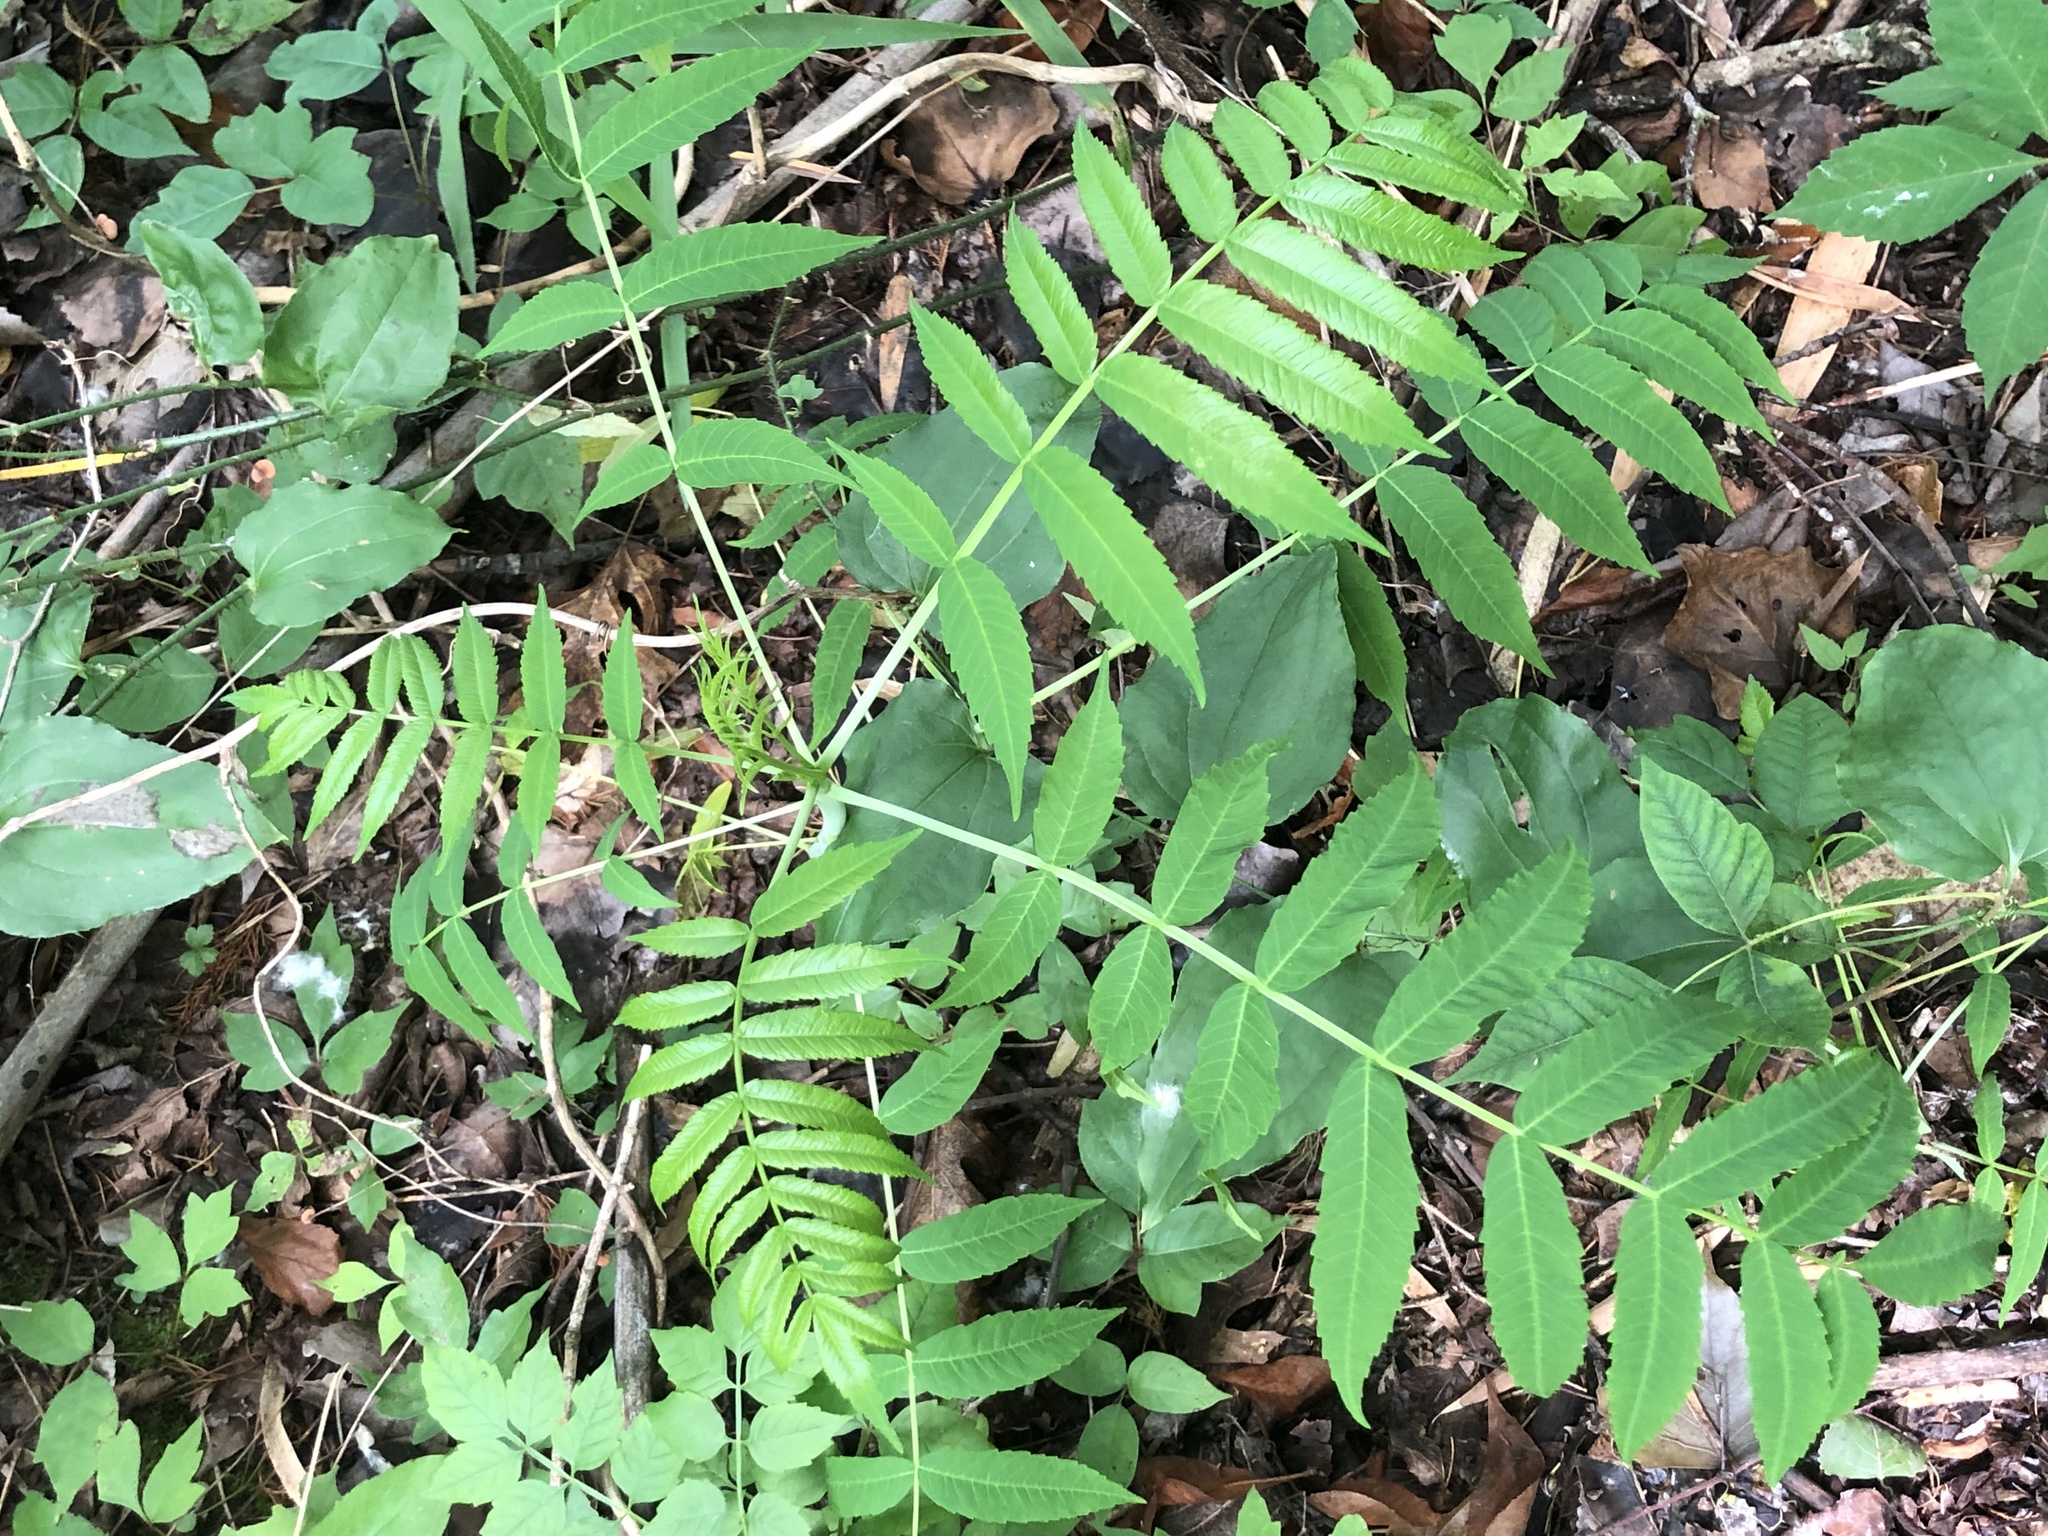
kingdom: Plantae
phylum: Tracheophyta
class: Magnoliopsida
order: Sapindales
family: Anacardiaceae
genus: Rhus
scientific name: Rhus glabra
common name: Scarlet sumac
